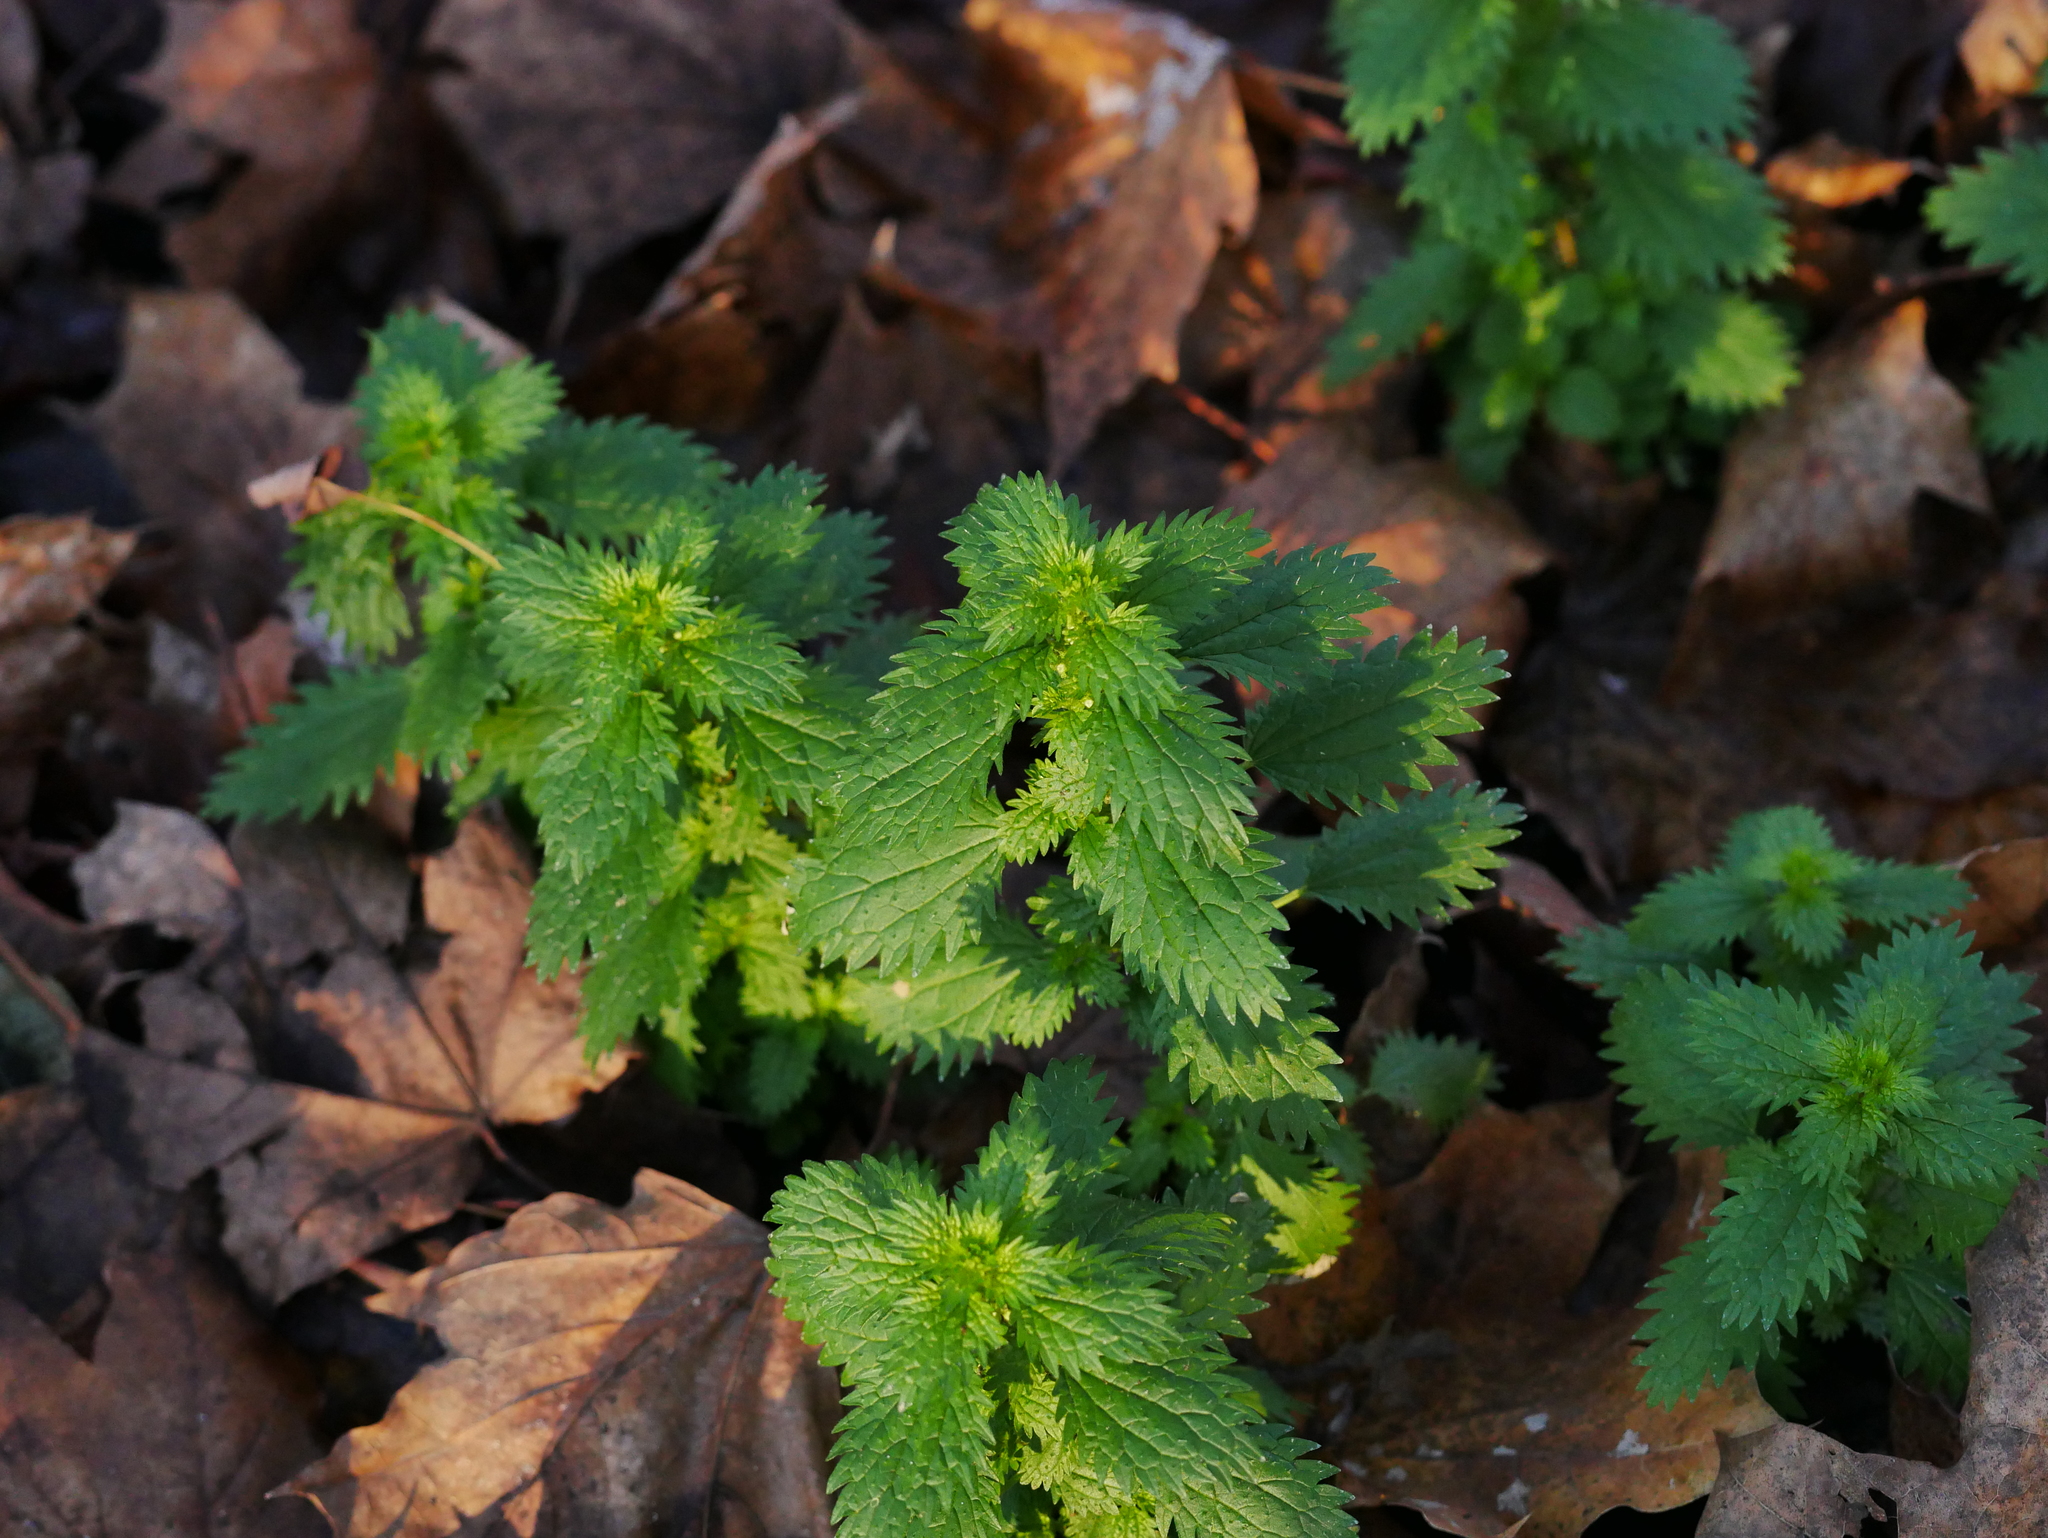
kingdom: Plantae
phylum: Tracheophyta
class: Magnoliopsida
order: Rosales
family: Urticaceae
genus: Urtica
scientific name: Urtica urens
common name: Dwarf nettle
